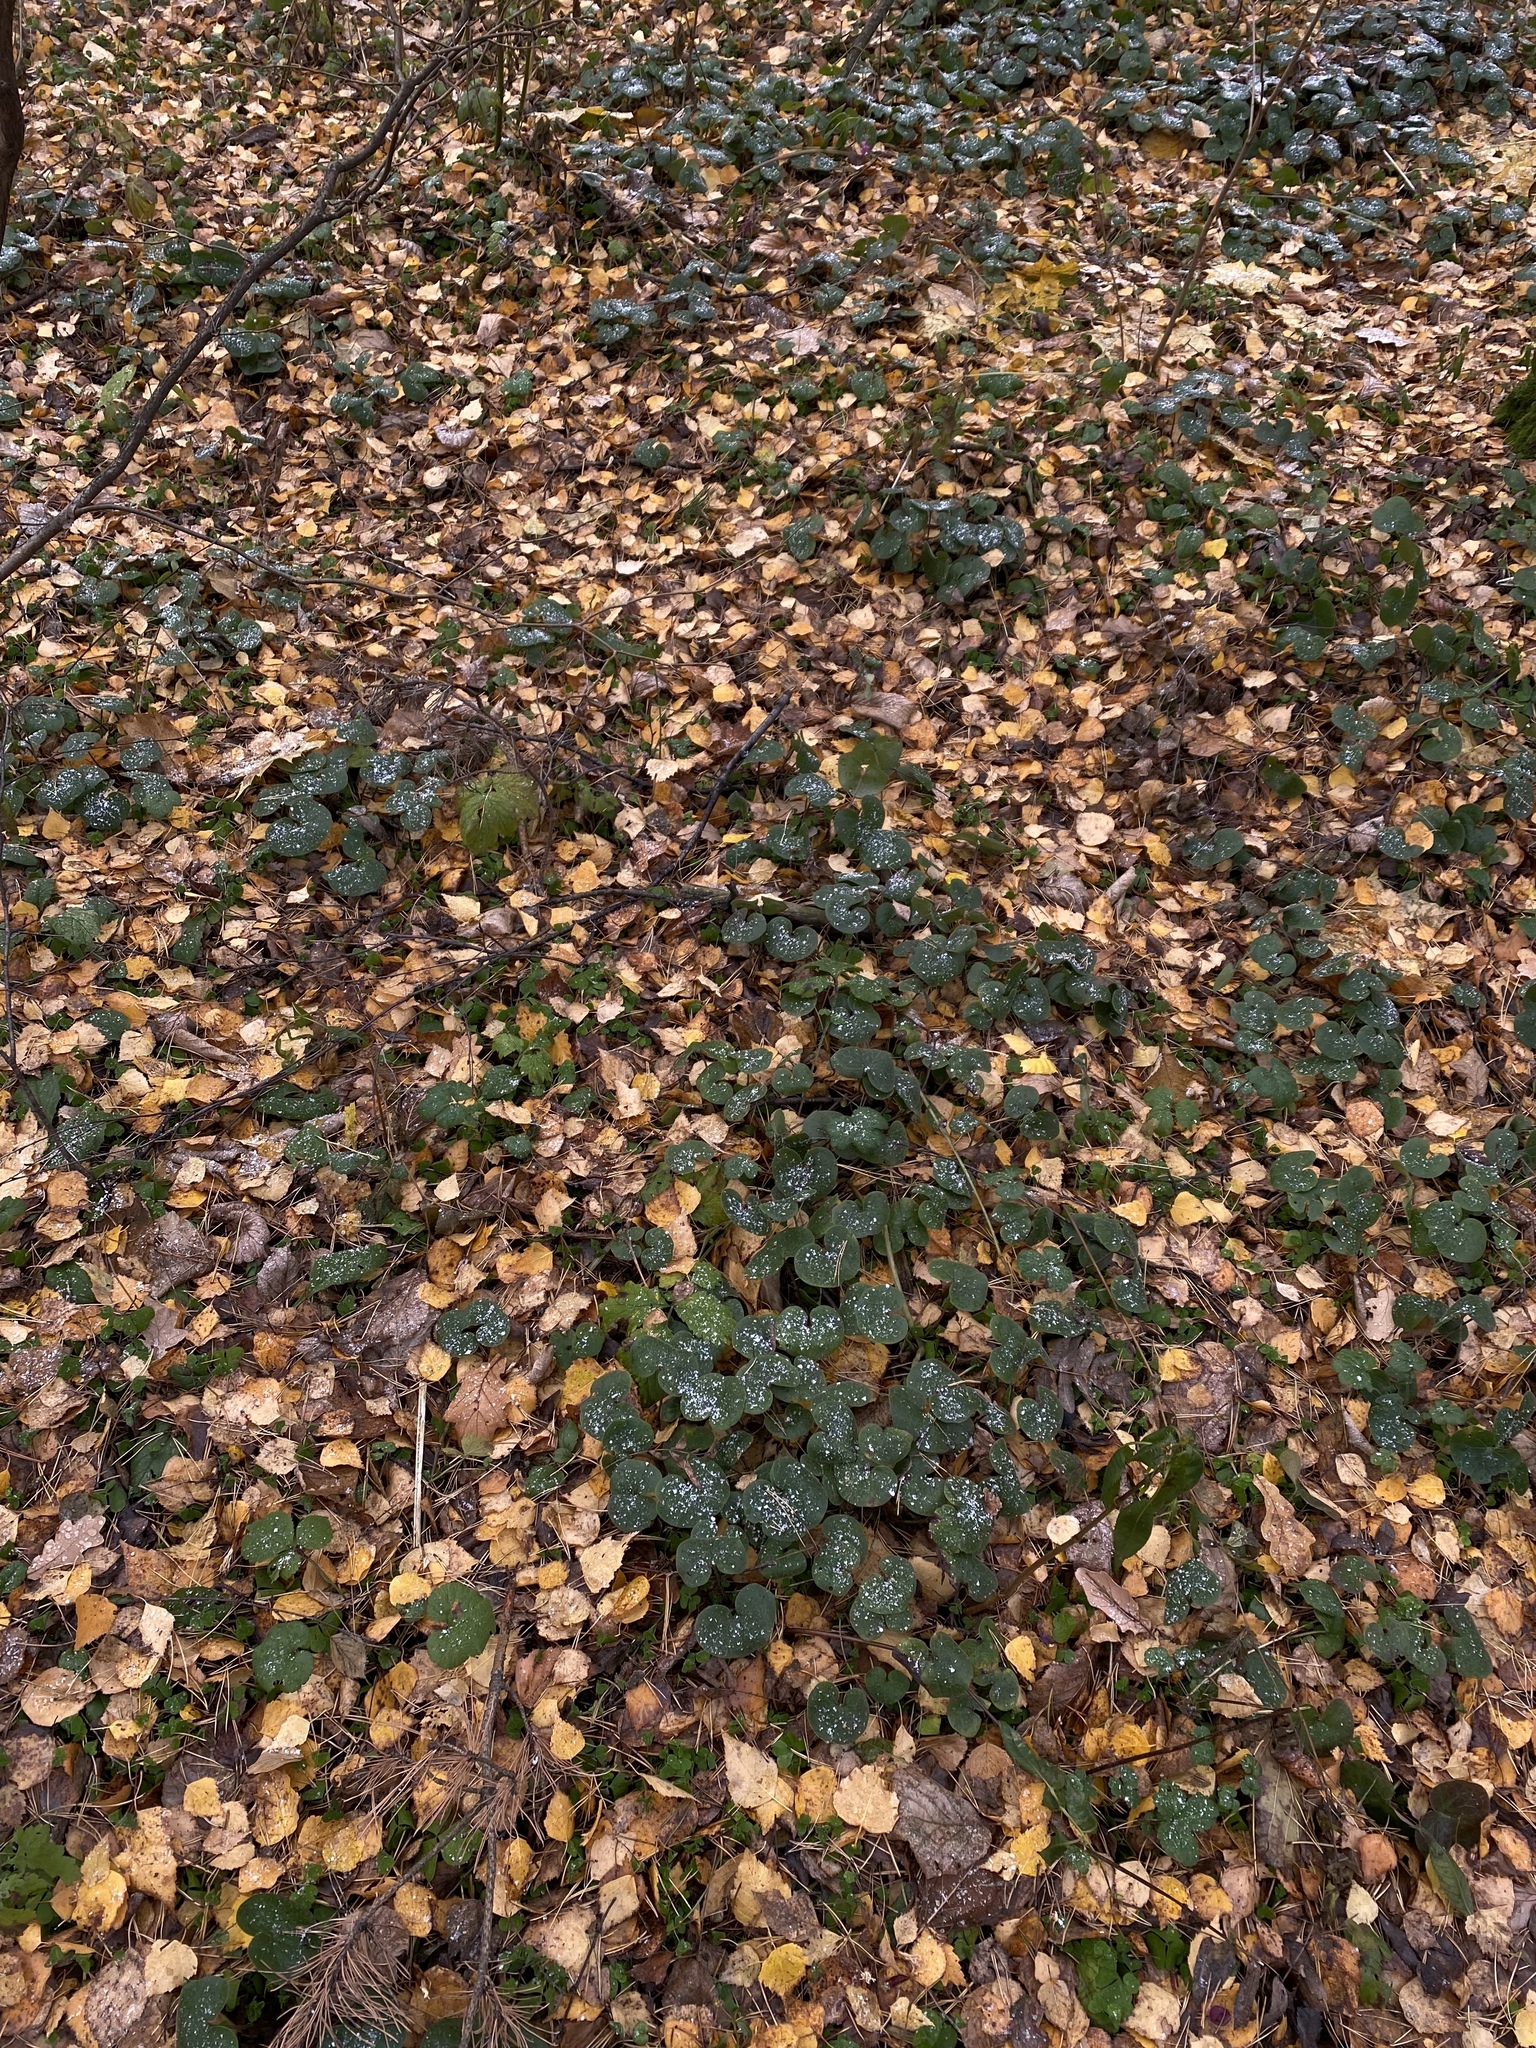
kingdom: Plantae
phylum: Tracheophyta
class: Magnoliopsida
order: Piperales
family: Aristolochiaceae
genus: Asarum
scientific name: Asarum europaeum
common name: Asarabacca
